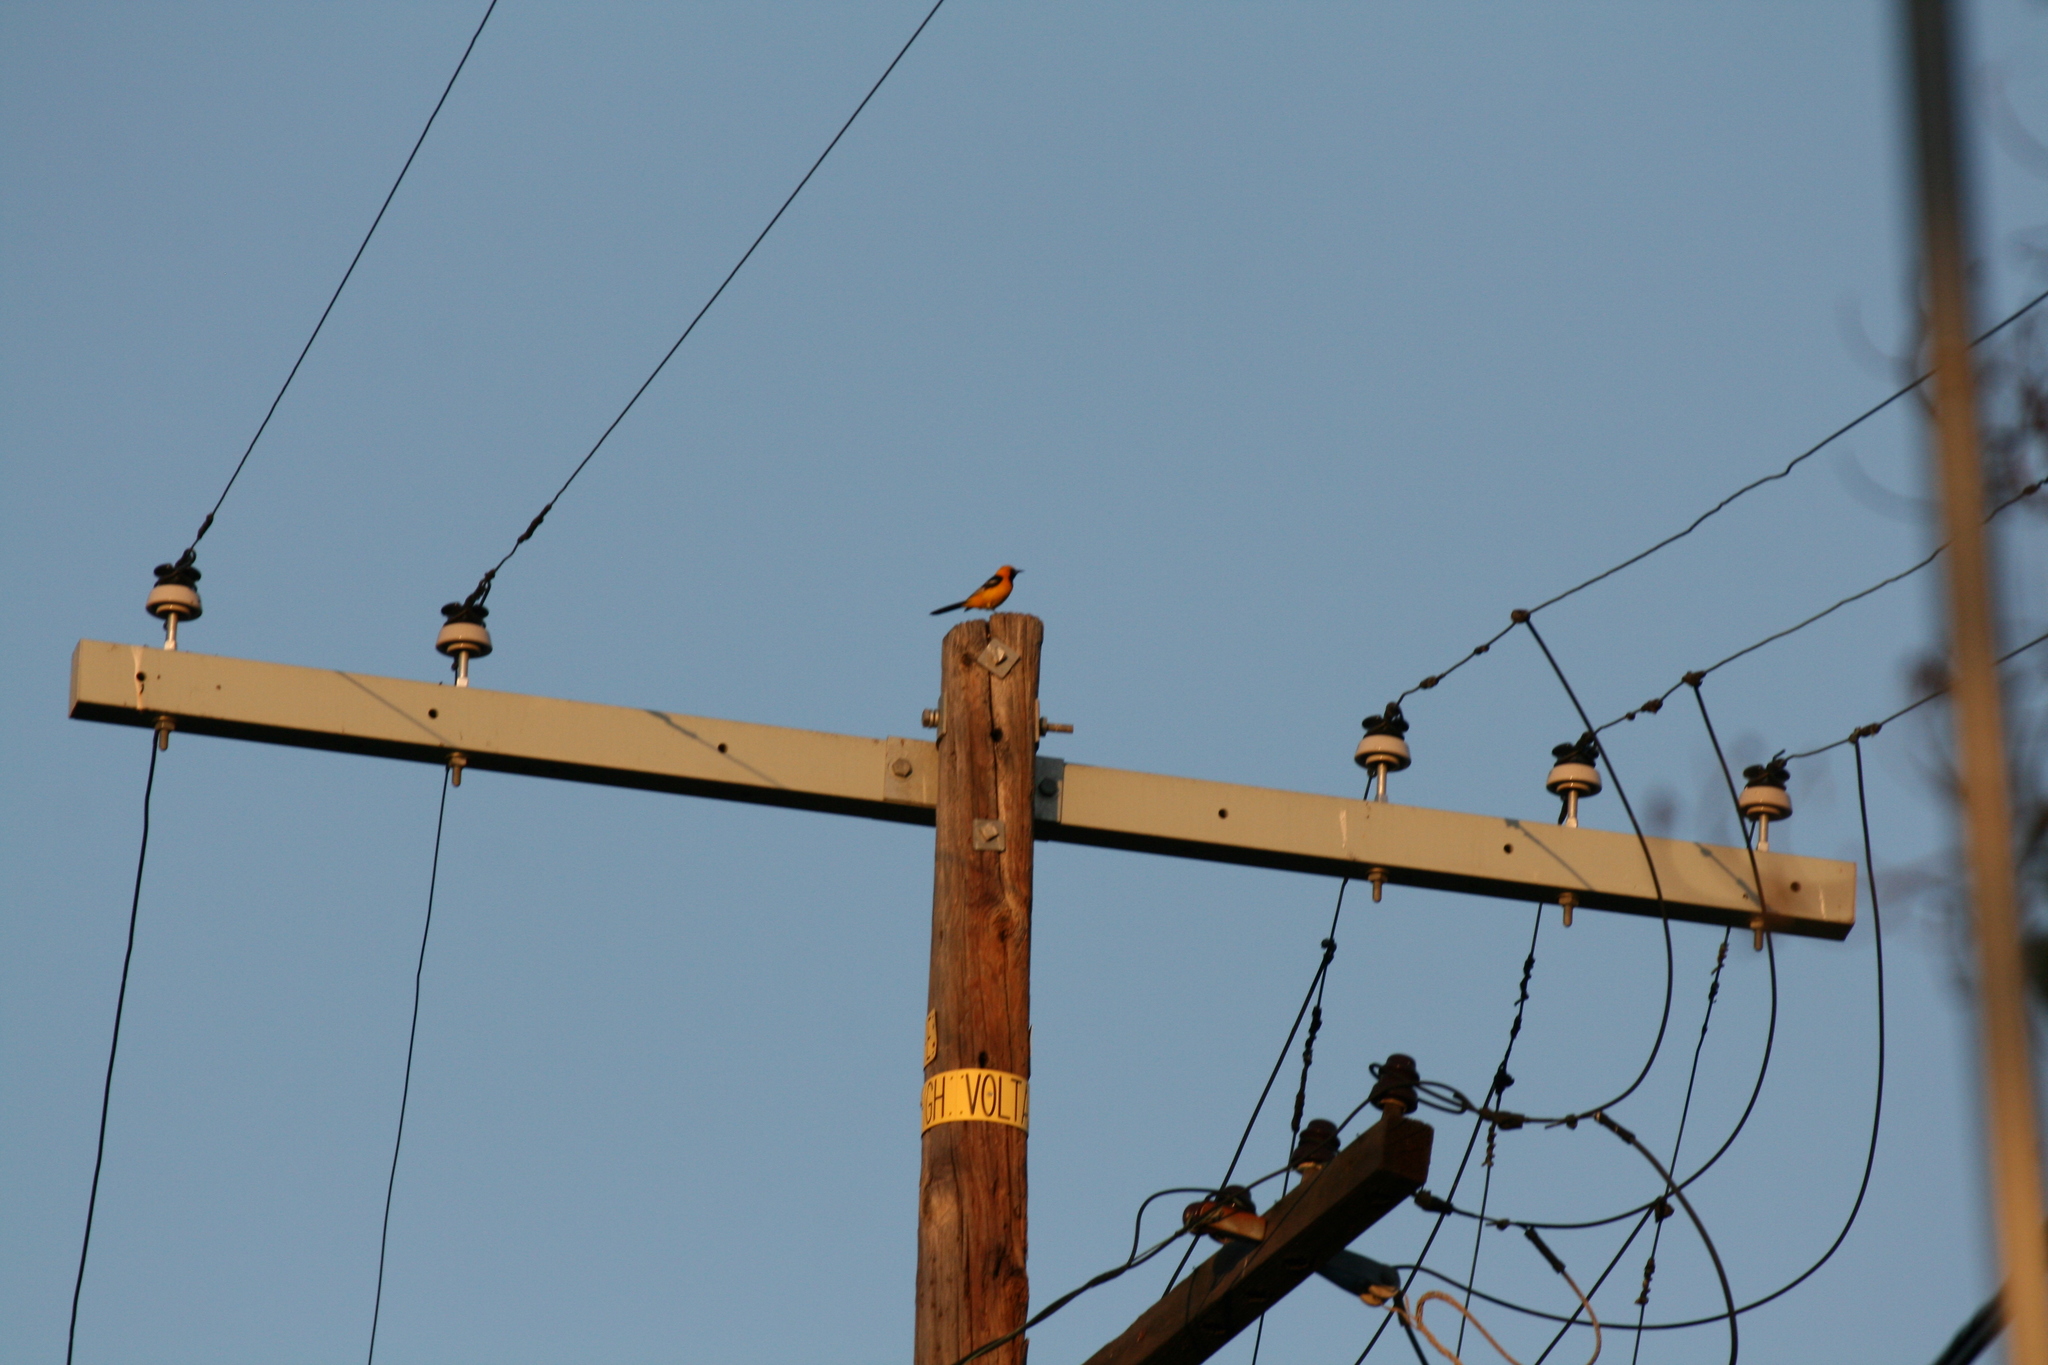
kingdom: Animalia
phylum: Chordata
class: Aves
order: Passeriformes
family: Icteridae
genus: Icterus
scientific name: Icterus cucullatus
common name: Hooded oriole
